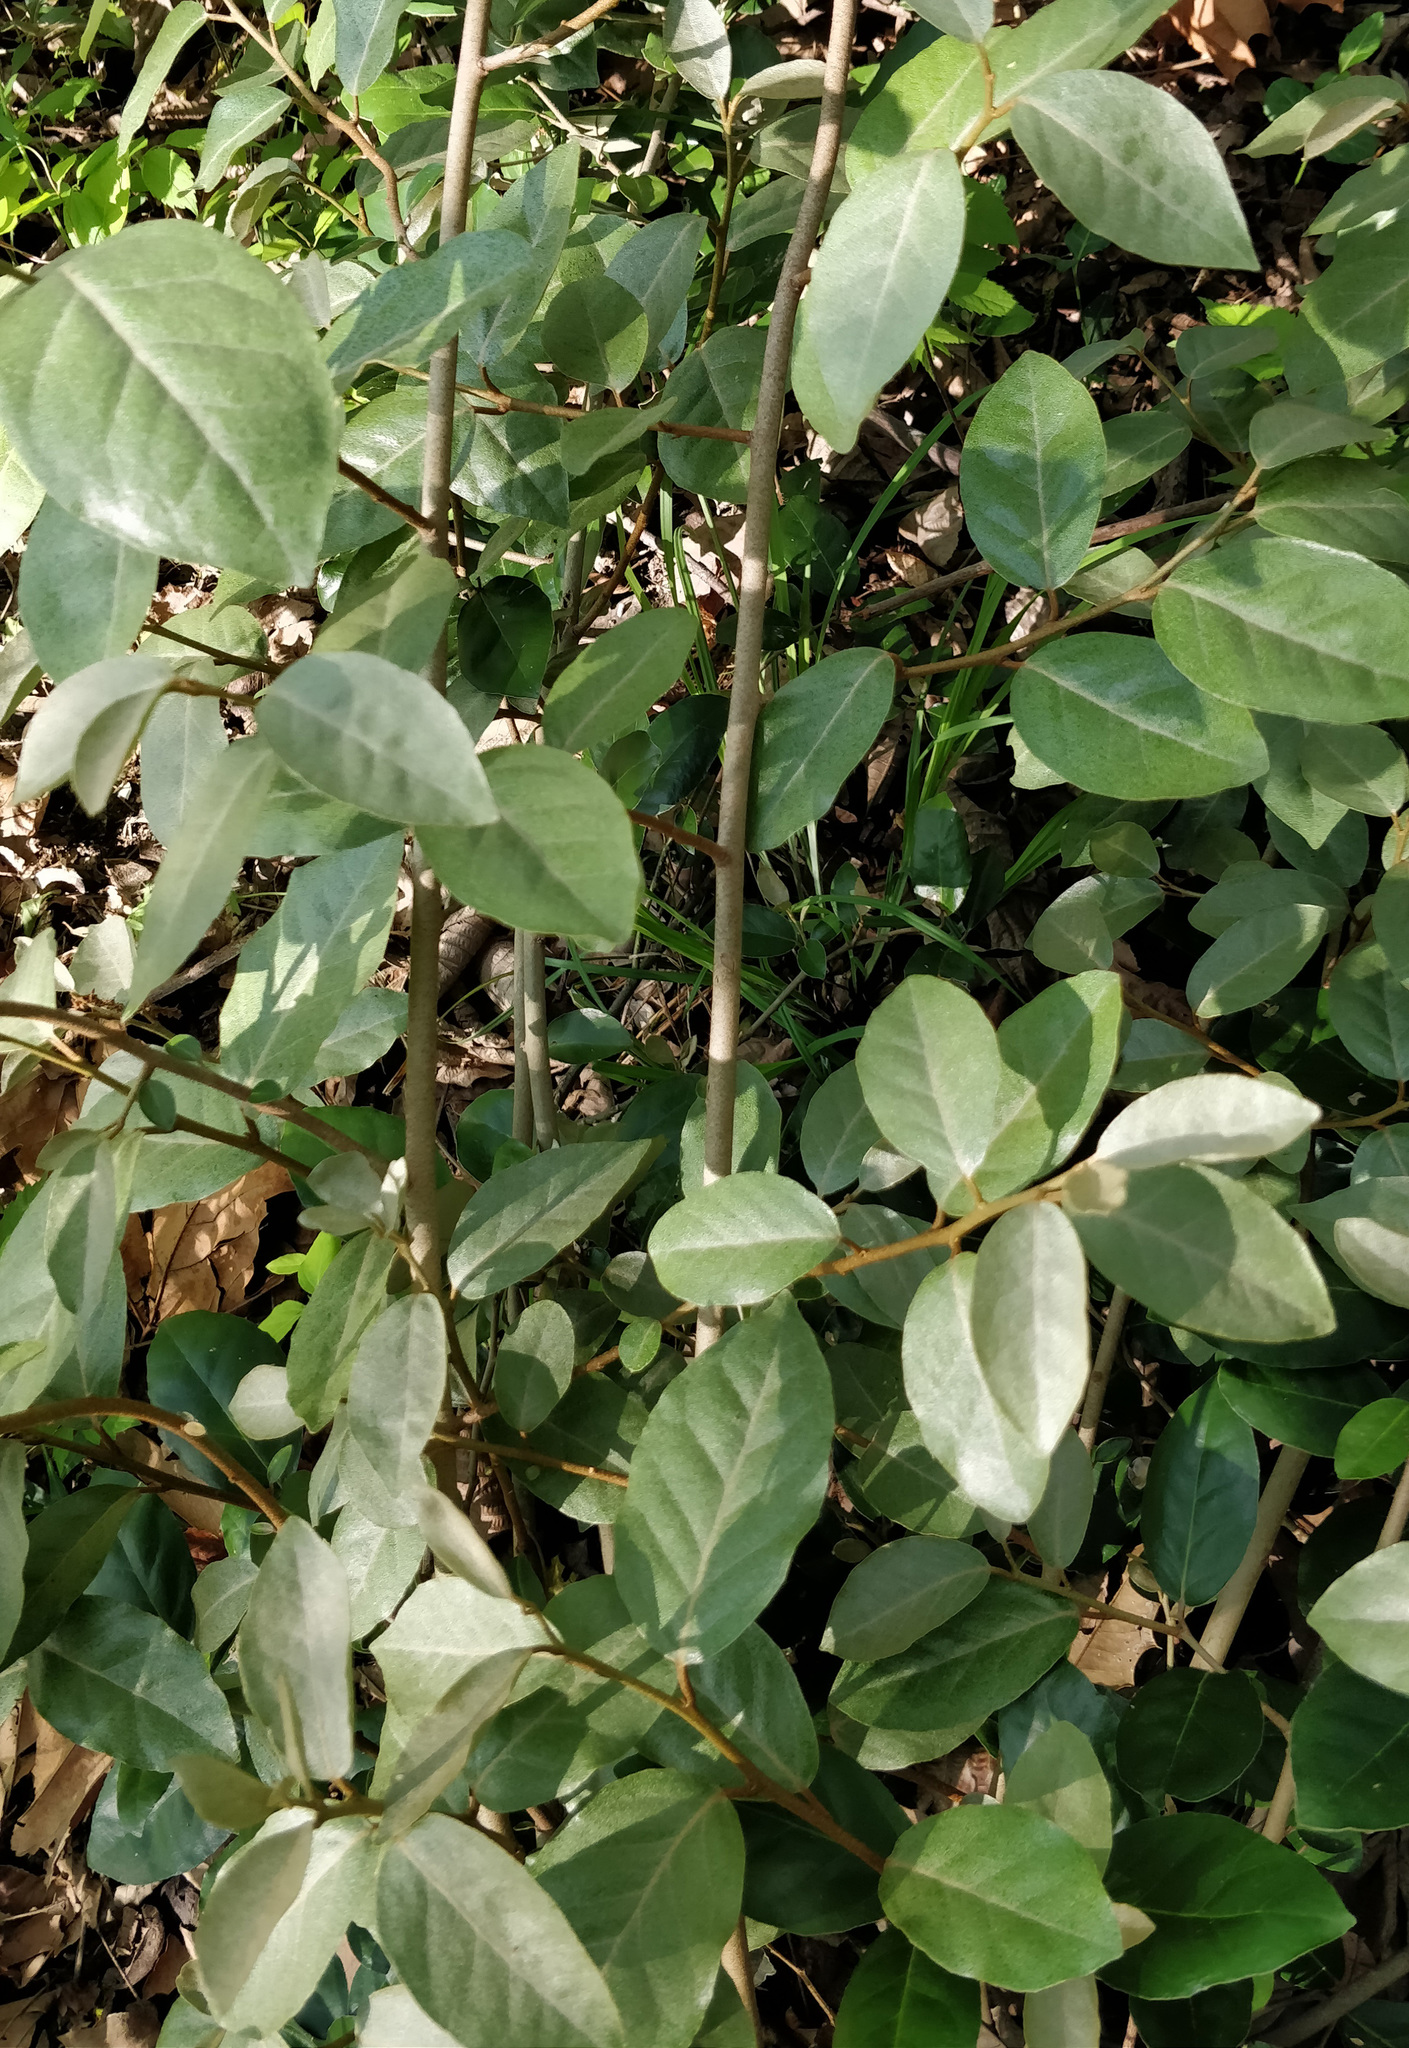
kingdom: Plantae
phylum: Tracheophyta
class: Magnoliopsida
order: Rosales
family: Elaeagnaceae
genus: Elaeagnus
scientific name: Elaeagnus pungens
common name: Spiny oleaster
